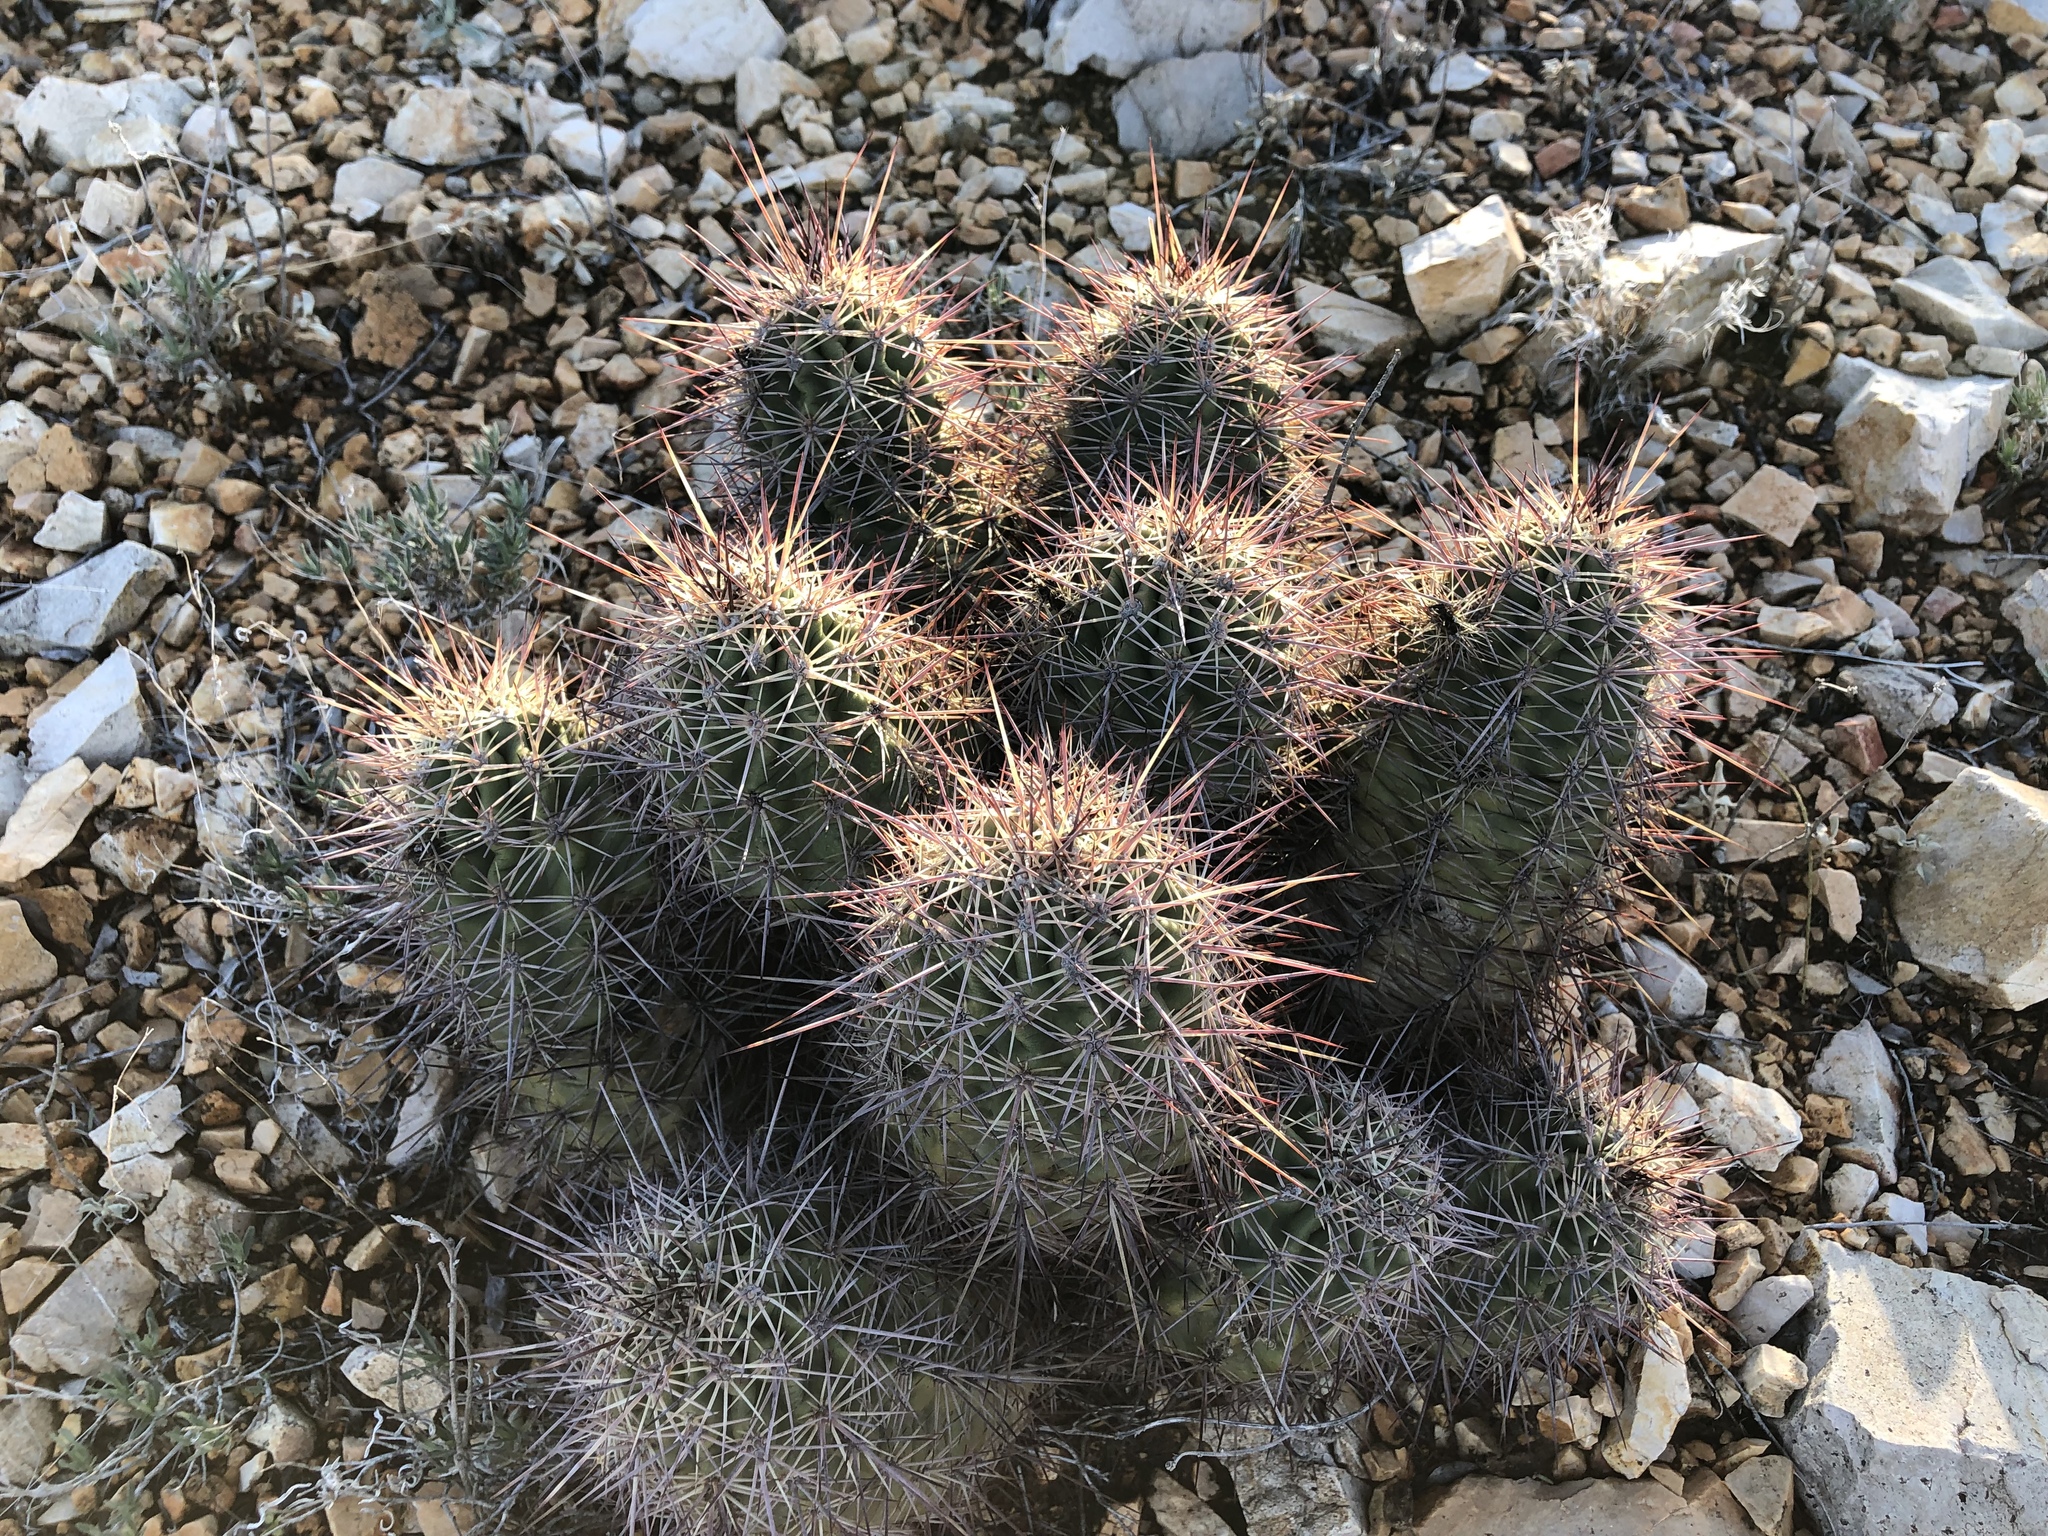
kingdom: Plantae
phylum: Tracheophyta
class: Magnoliopsida
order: Caryophyllales
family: Cactaceae
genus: Echinocereus
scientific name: Echinocereus coccineus
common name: Scarlet hedgehog cactus
